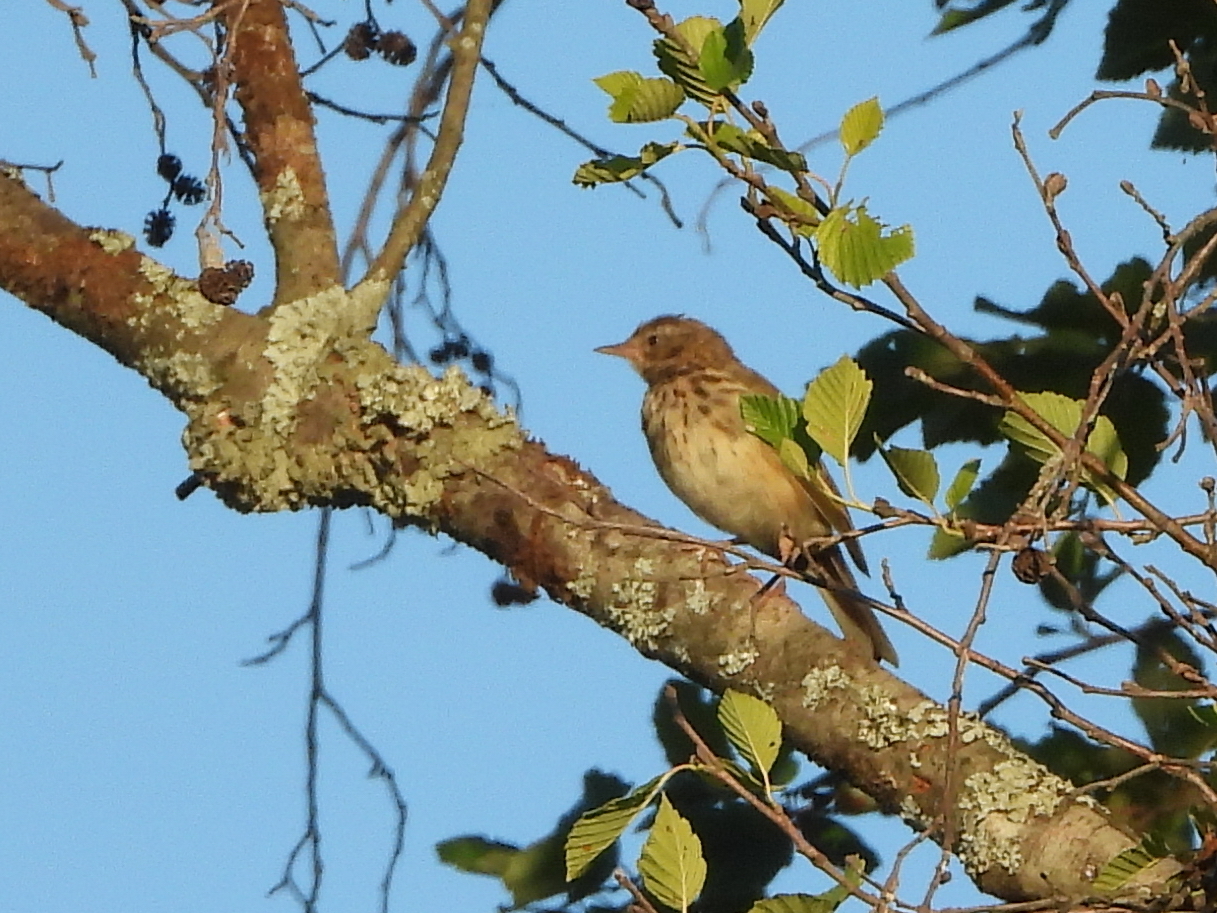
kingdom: Animalia
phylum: Chordata
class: Aves
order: Passeriformes
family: Motacillidae
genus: Anthus
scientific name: Anthus trivialis
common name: Tree pipit
